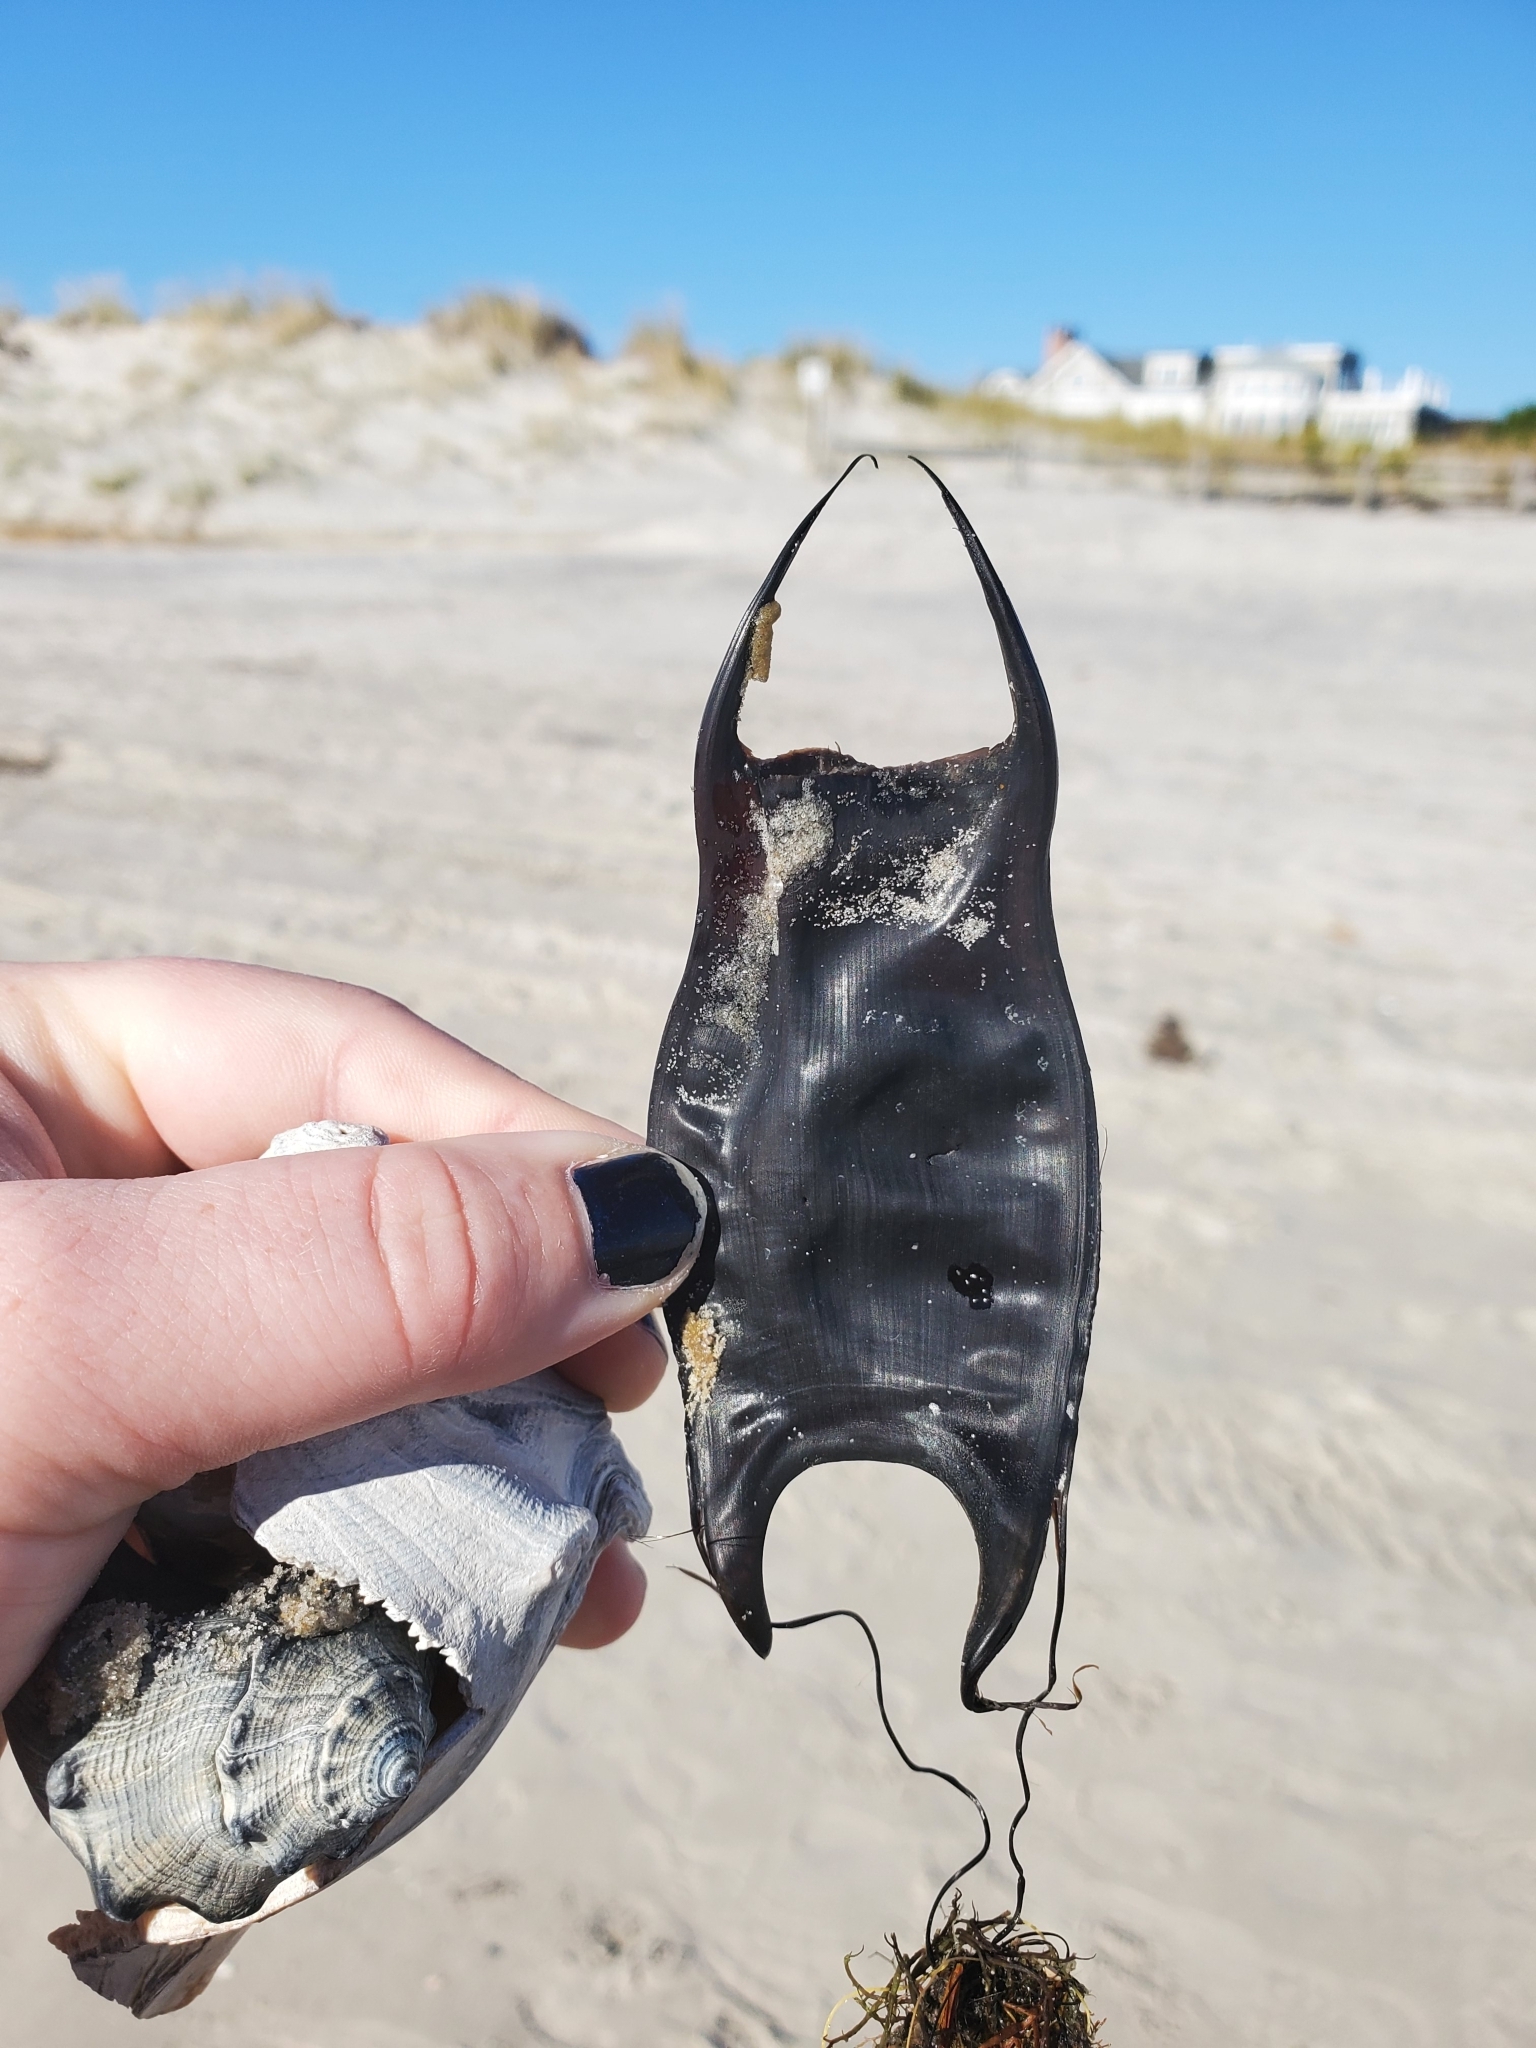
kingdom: Animalia
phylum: Chordata
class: Elasmobranchii
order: Rajiformes
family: Rajidae
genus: Raja
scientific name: Raja eglanteria
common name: Clearnose skate
